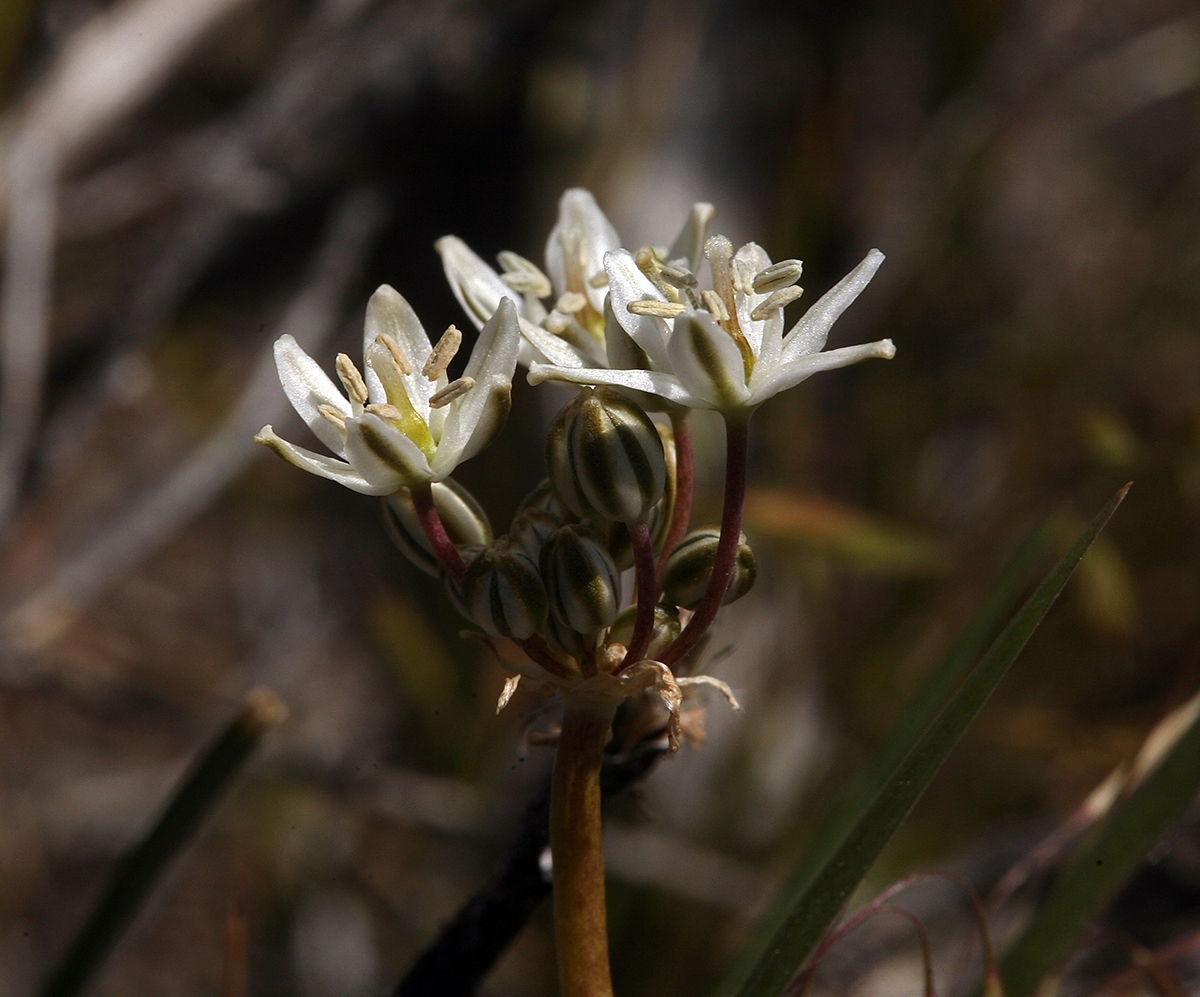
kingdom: Plantae
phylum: Tracheophyta
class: Liliopsida
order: Asparagales
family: Asparagaceae
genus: Muilla
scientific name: Muilla transmontana
